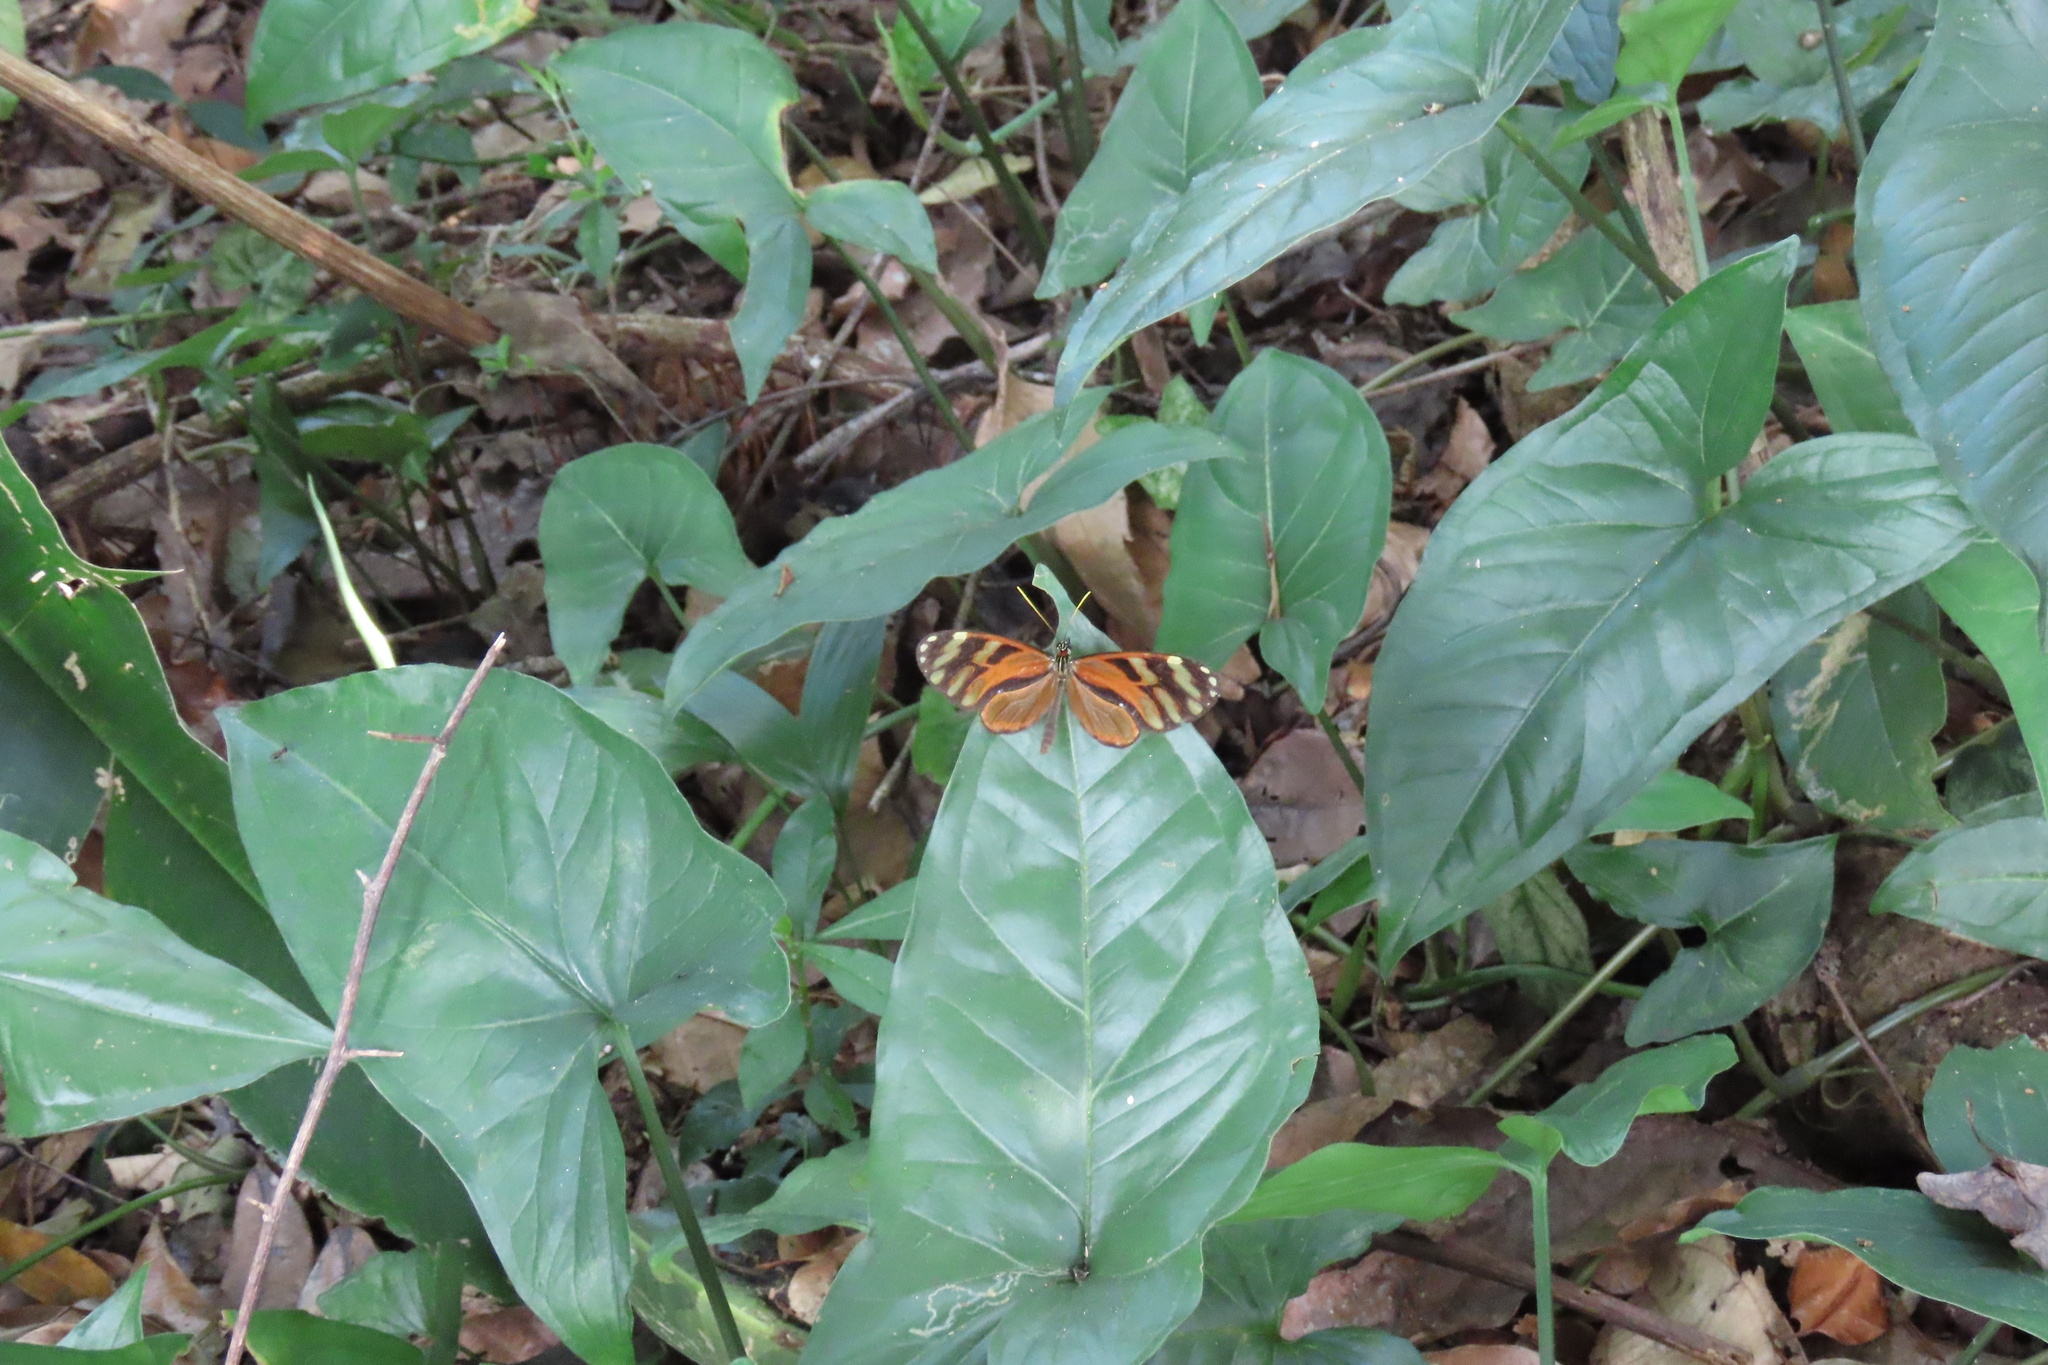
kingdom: Animalia
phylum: Arthropoda
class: Insecta
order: Lepidoptera
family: Nymphalidae
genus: Ithomia
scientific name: Ithomia heraldica
